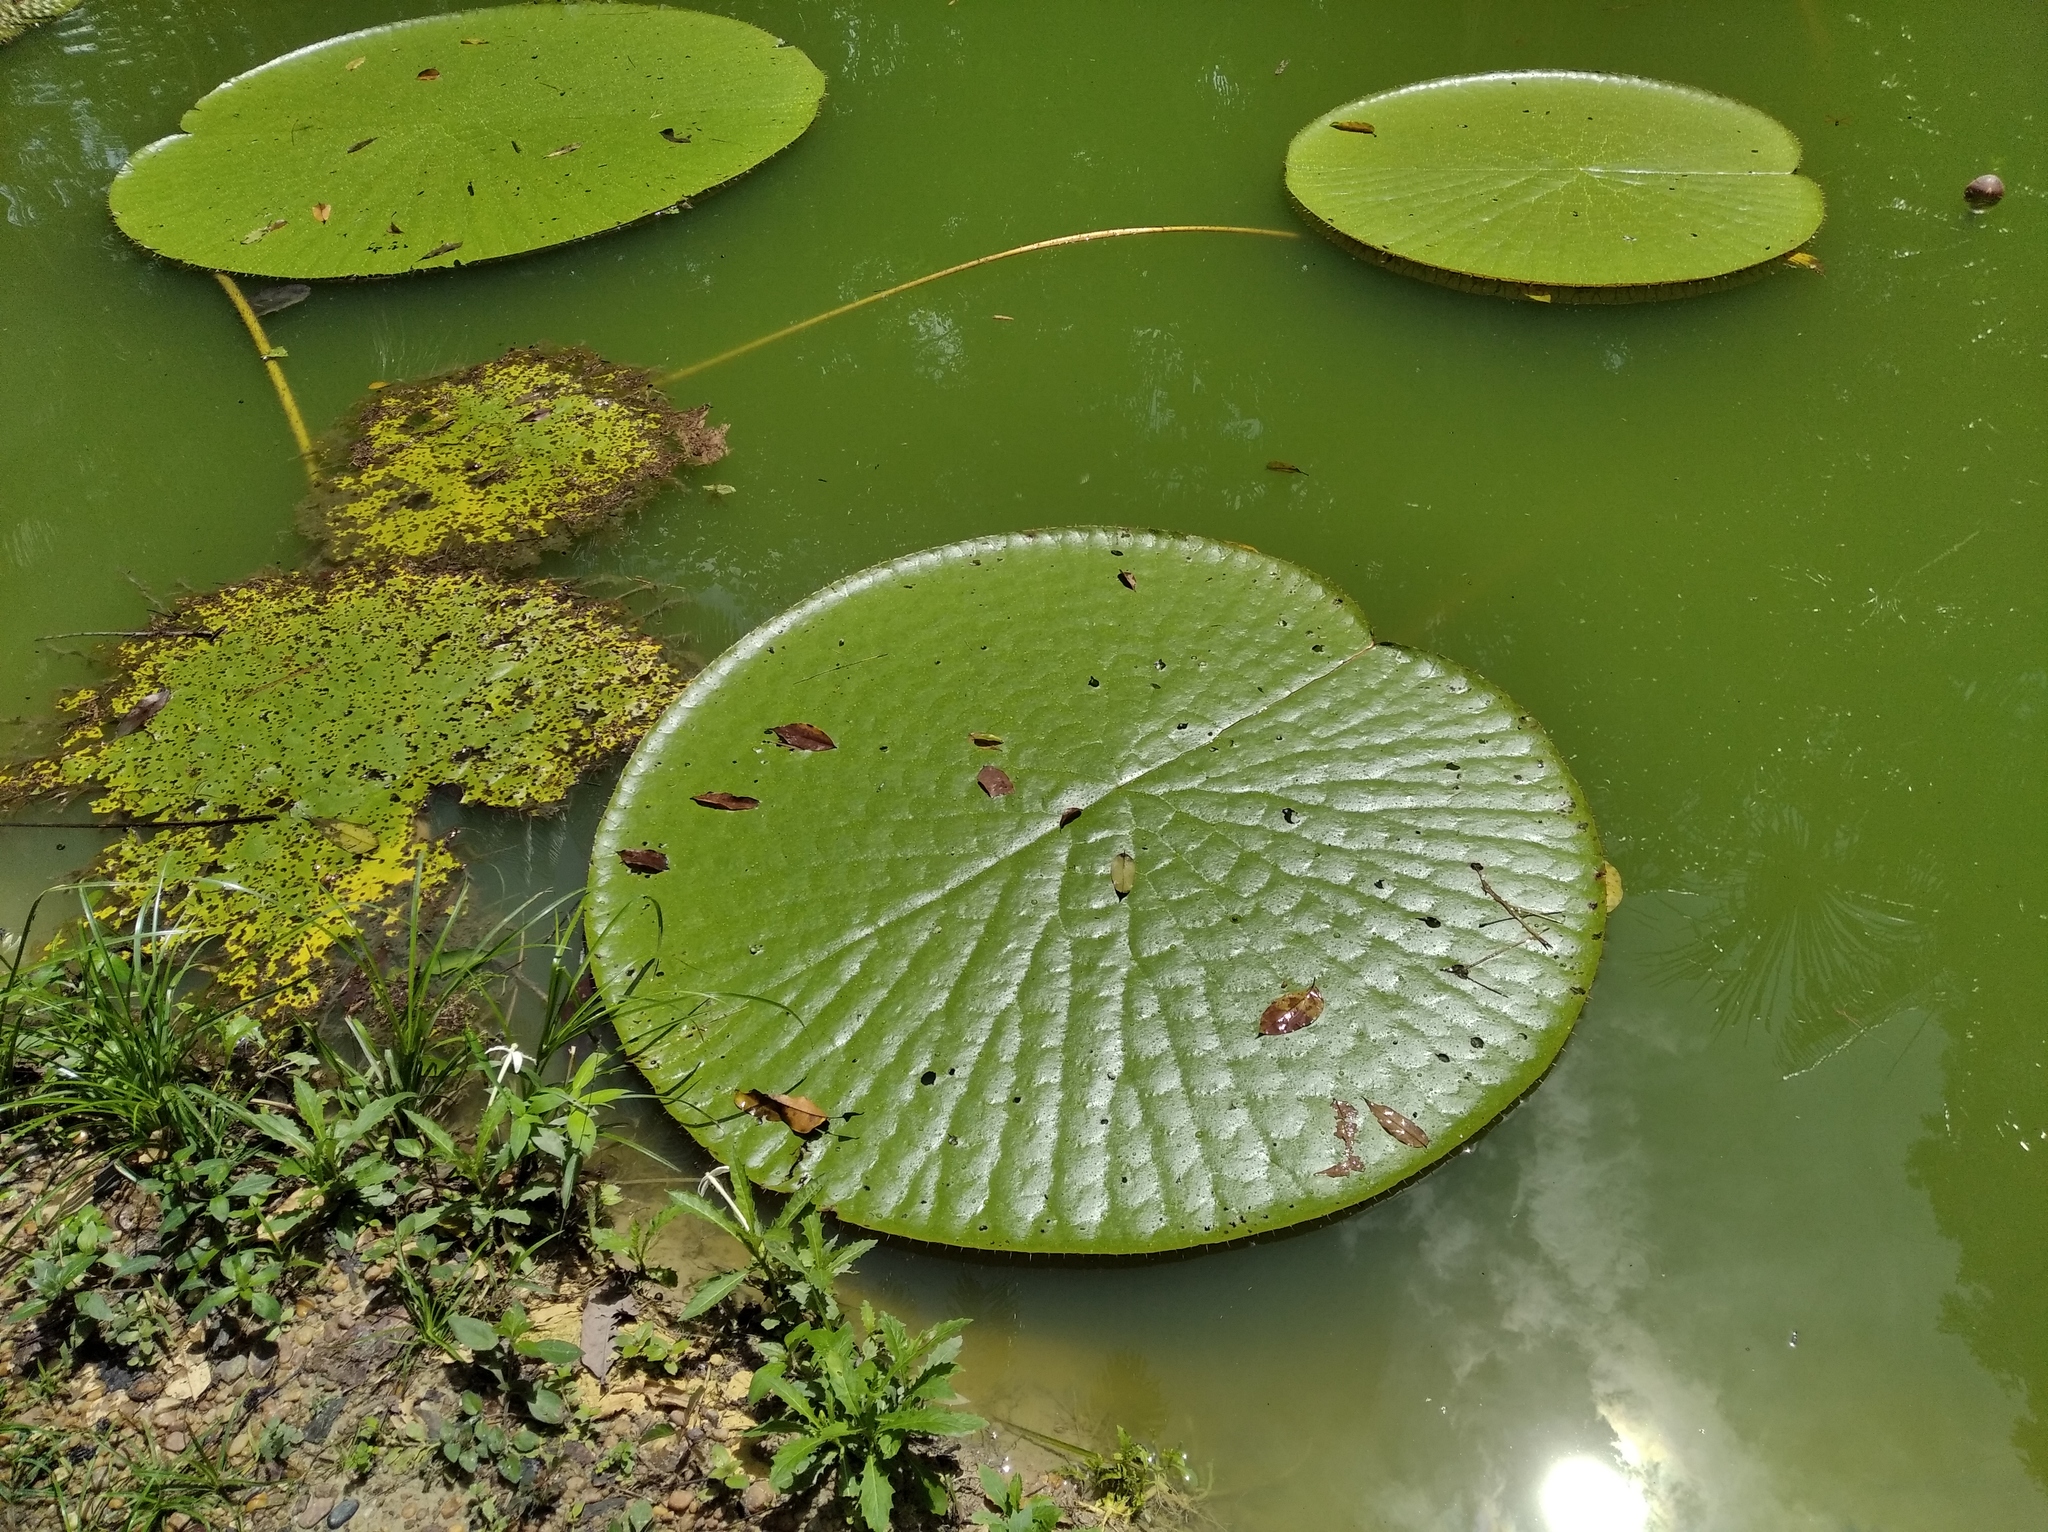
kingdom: Plantae
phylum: Tracheophyta
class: Magnoliopsida
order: Nymphaeales
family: Nymphaeaceae
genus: Victoria
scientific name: Victoria amazonica
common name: Amazon water-lily
